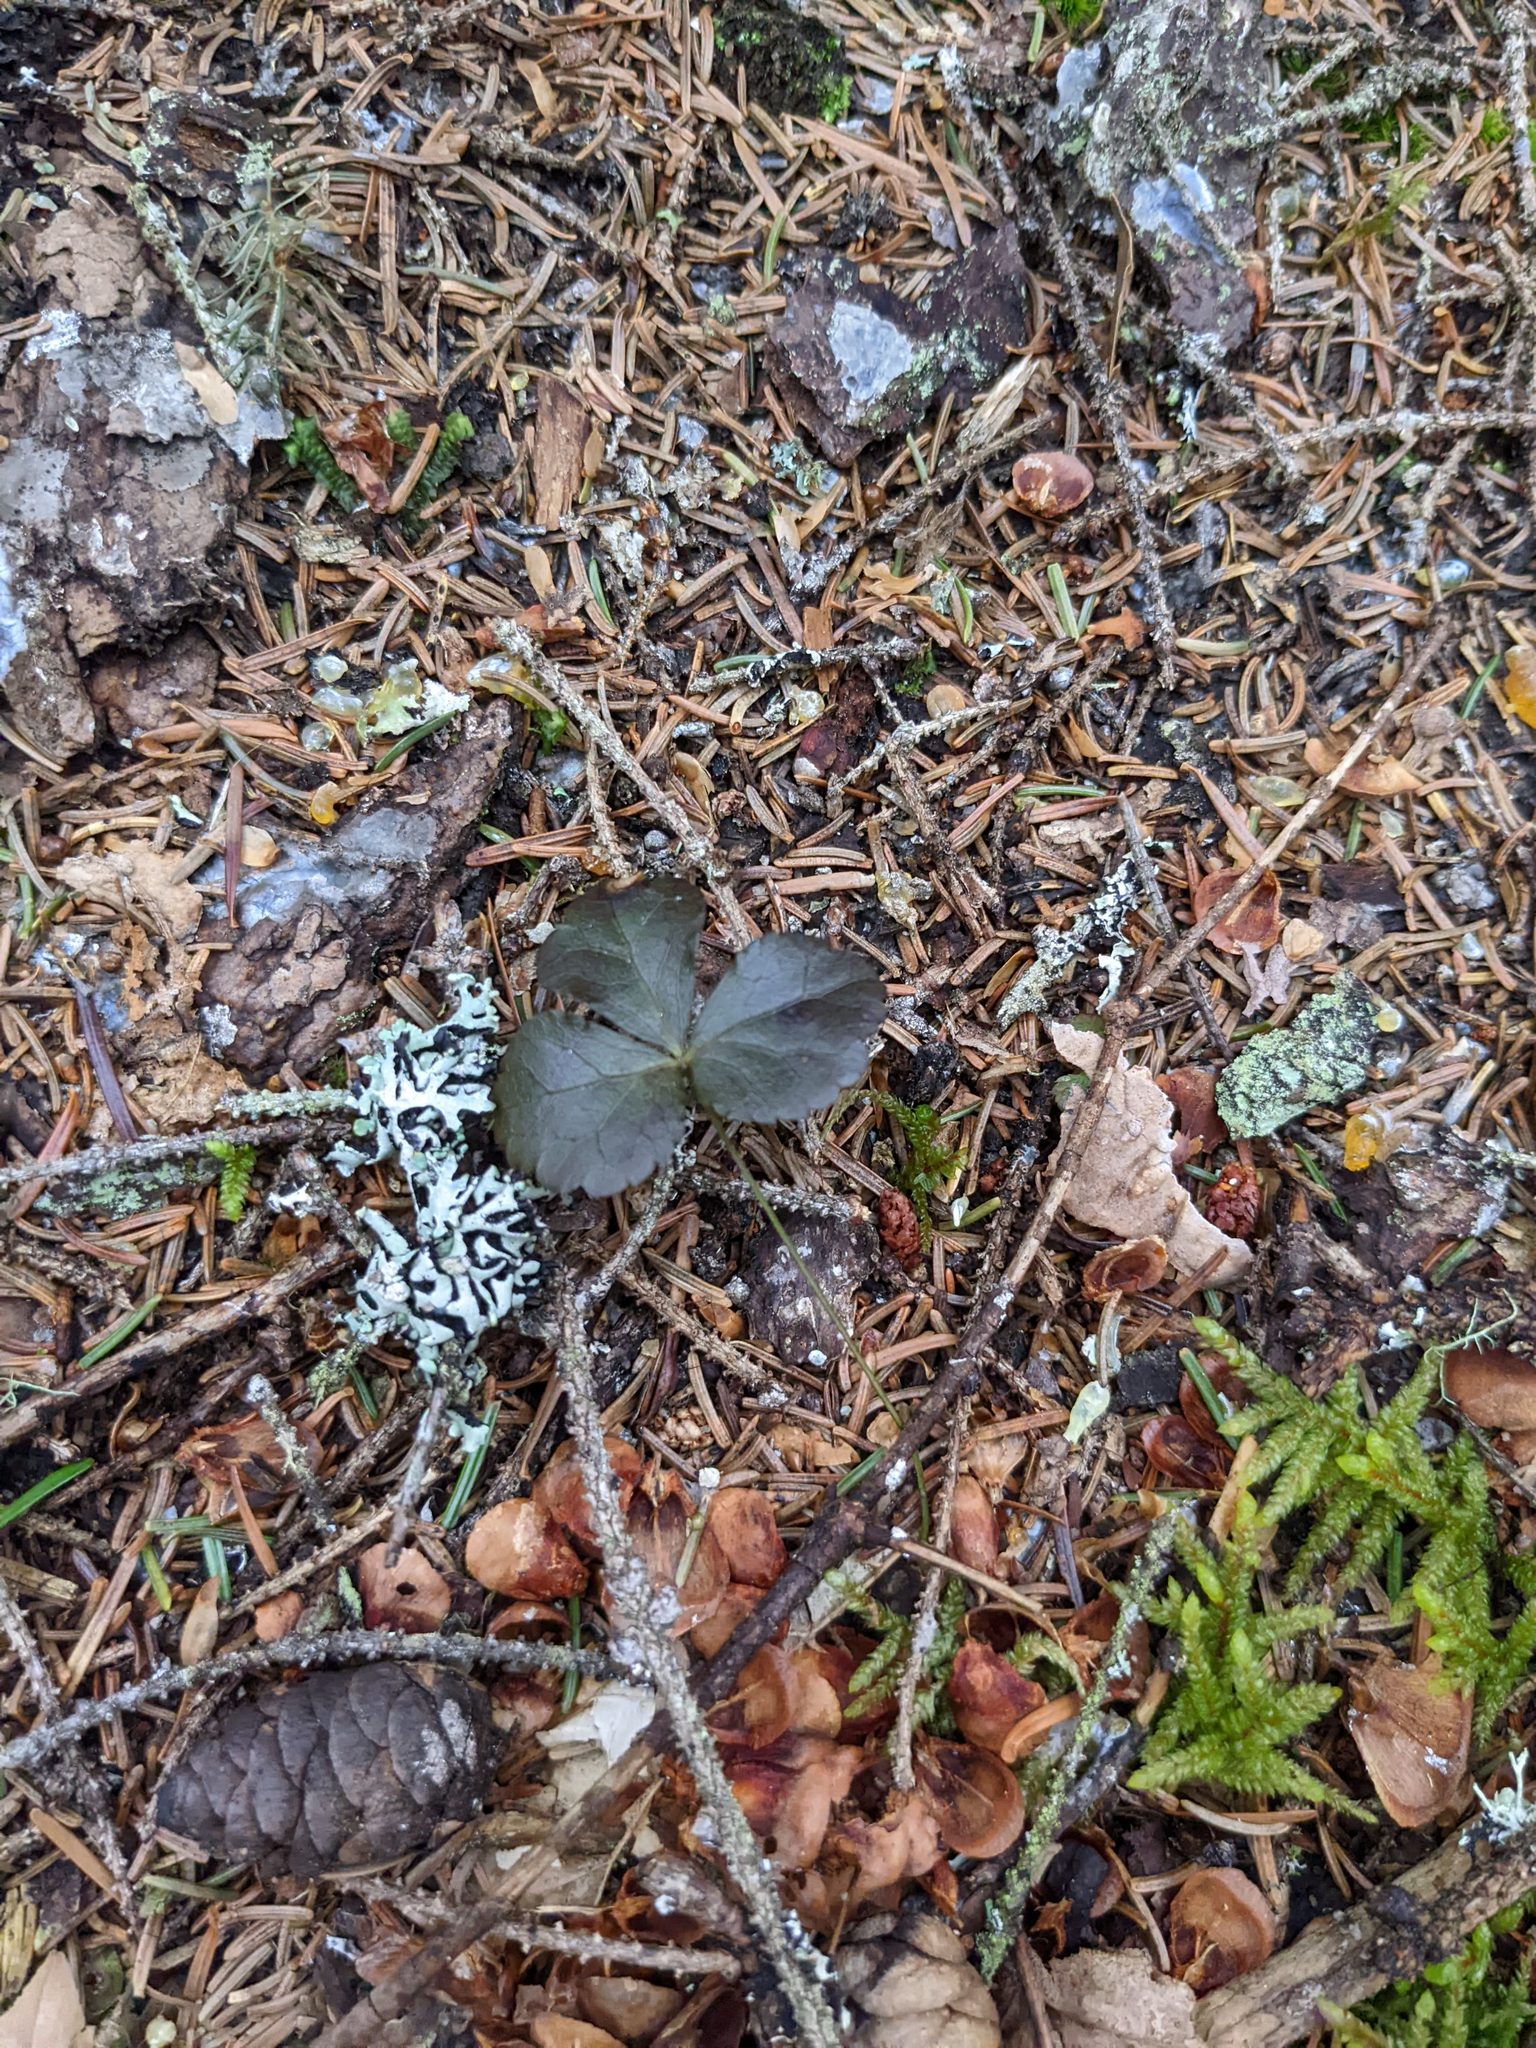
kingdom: Plantae
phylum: Tracheophyta
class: Magnoliopsida
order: Ranunculales
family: Ranunculaceae
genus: Coptis
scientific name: Coptis trifolia
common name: Canker-root
